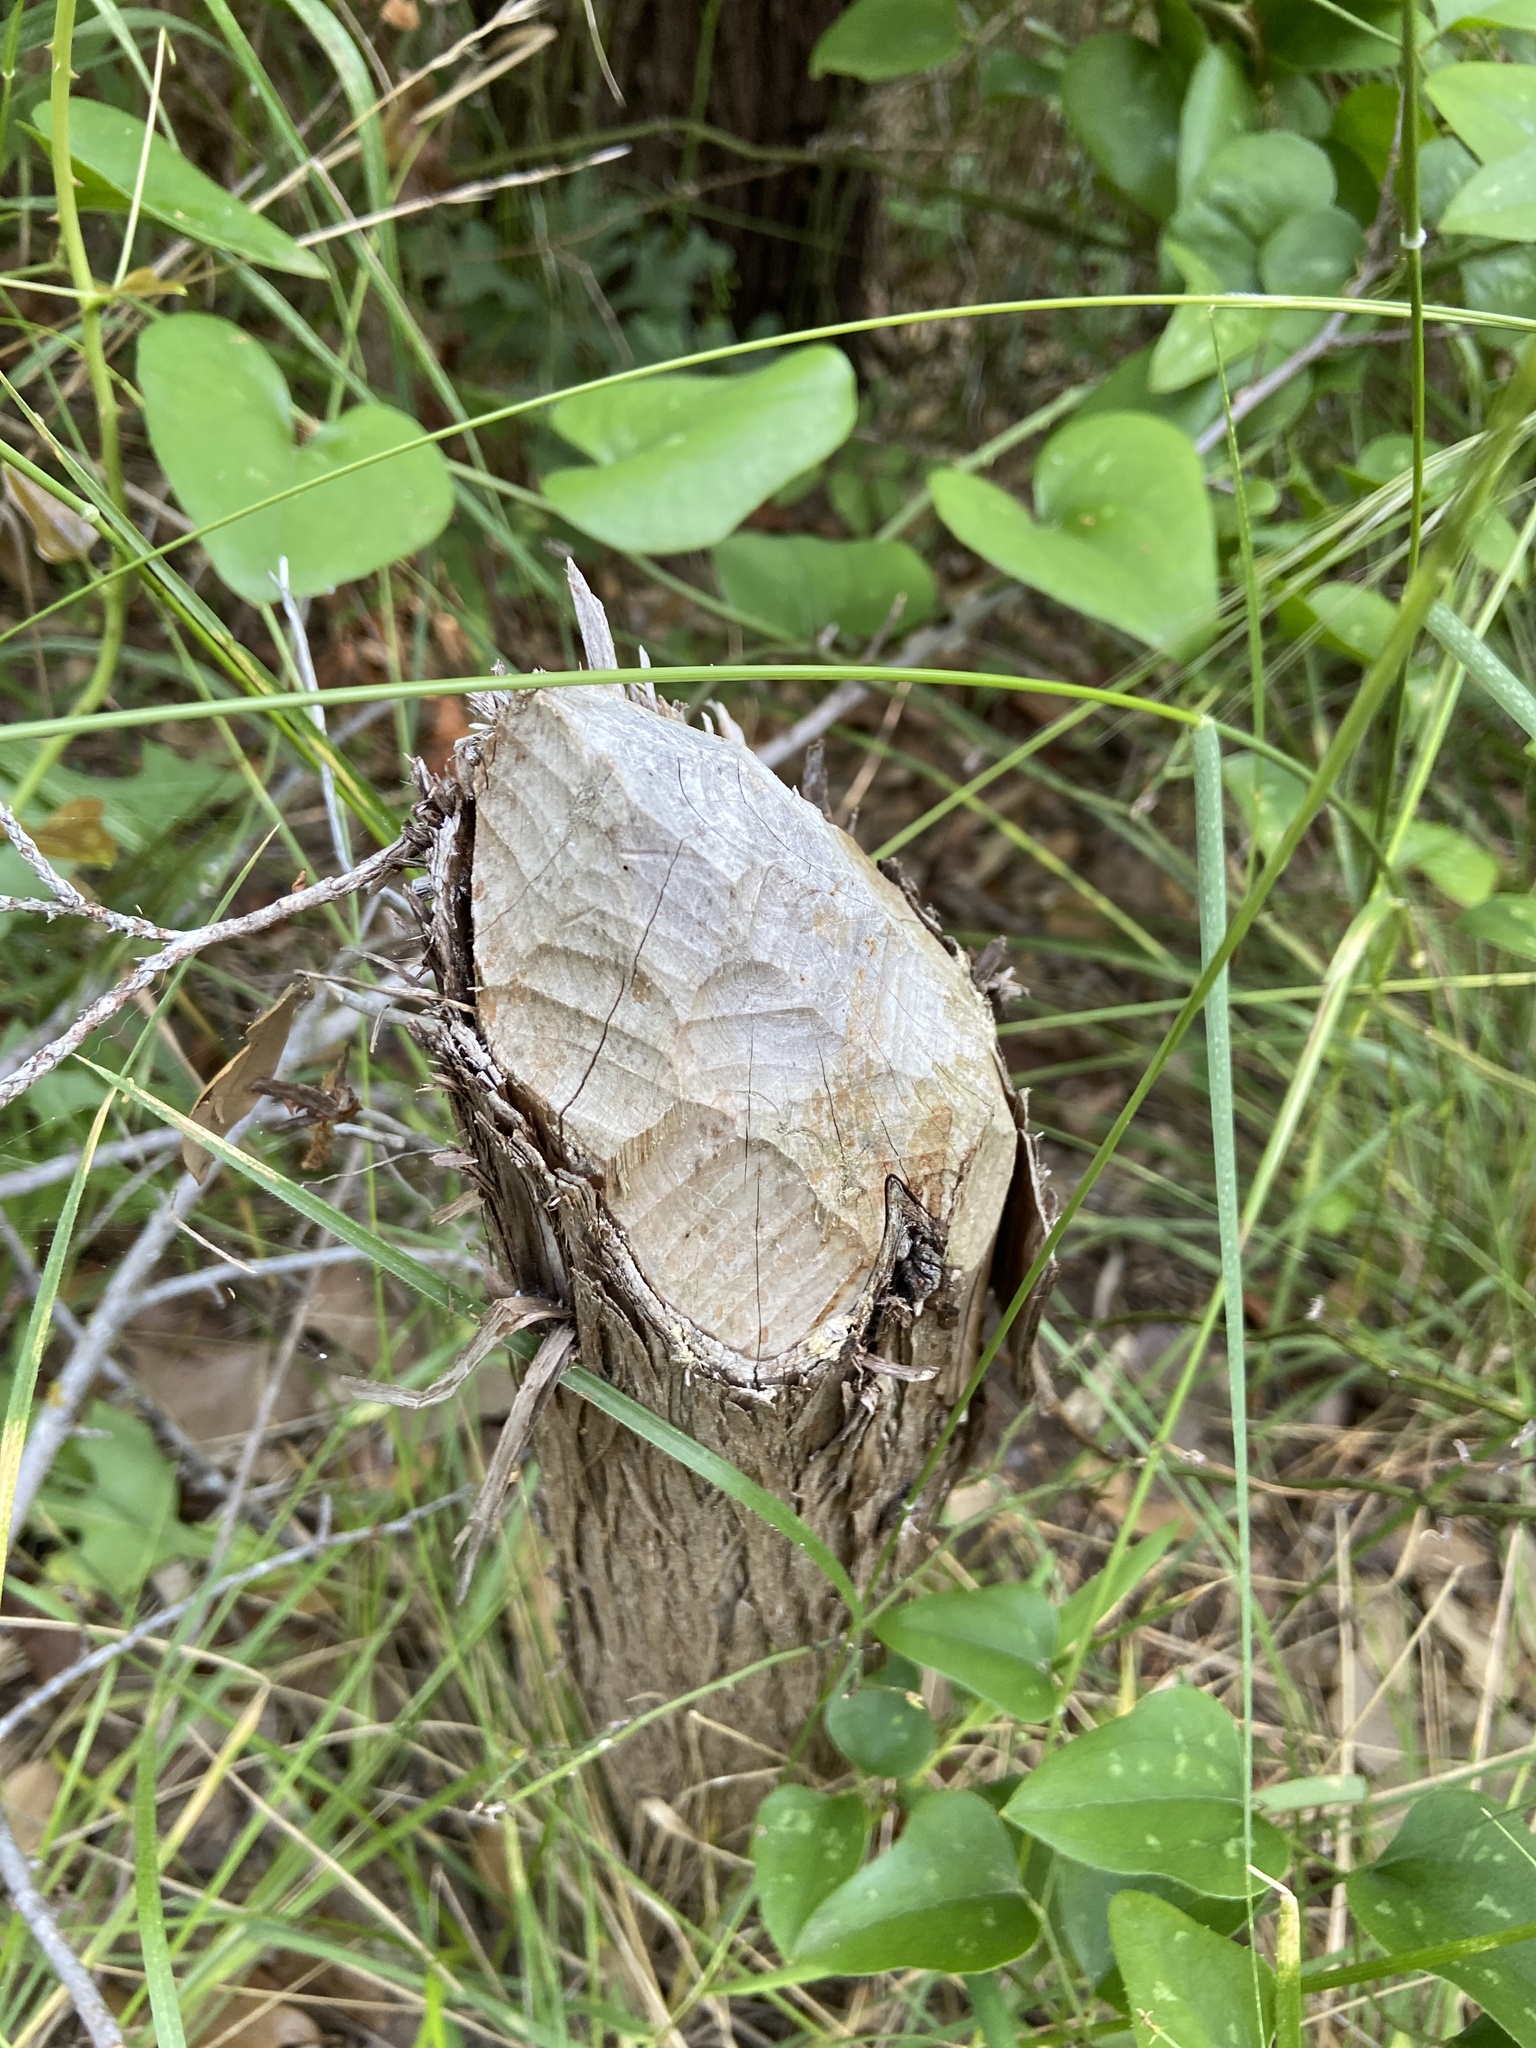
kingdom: Animalia
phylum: Chordata
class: Mammalia
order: Rodentia
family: Castoridae
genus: Castor
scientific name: Castor canadensis
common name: American beaver
